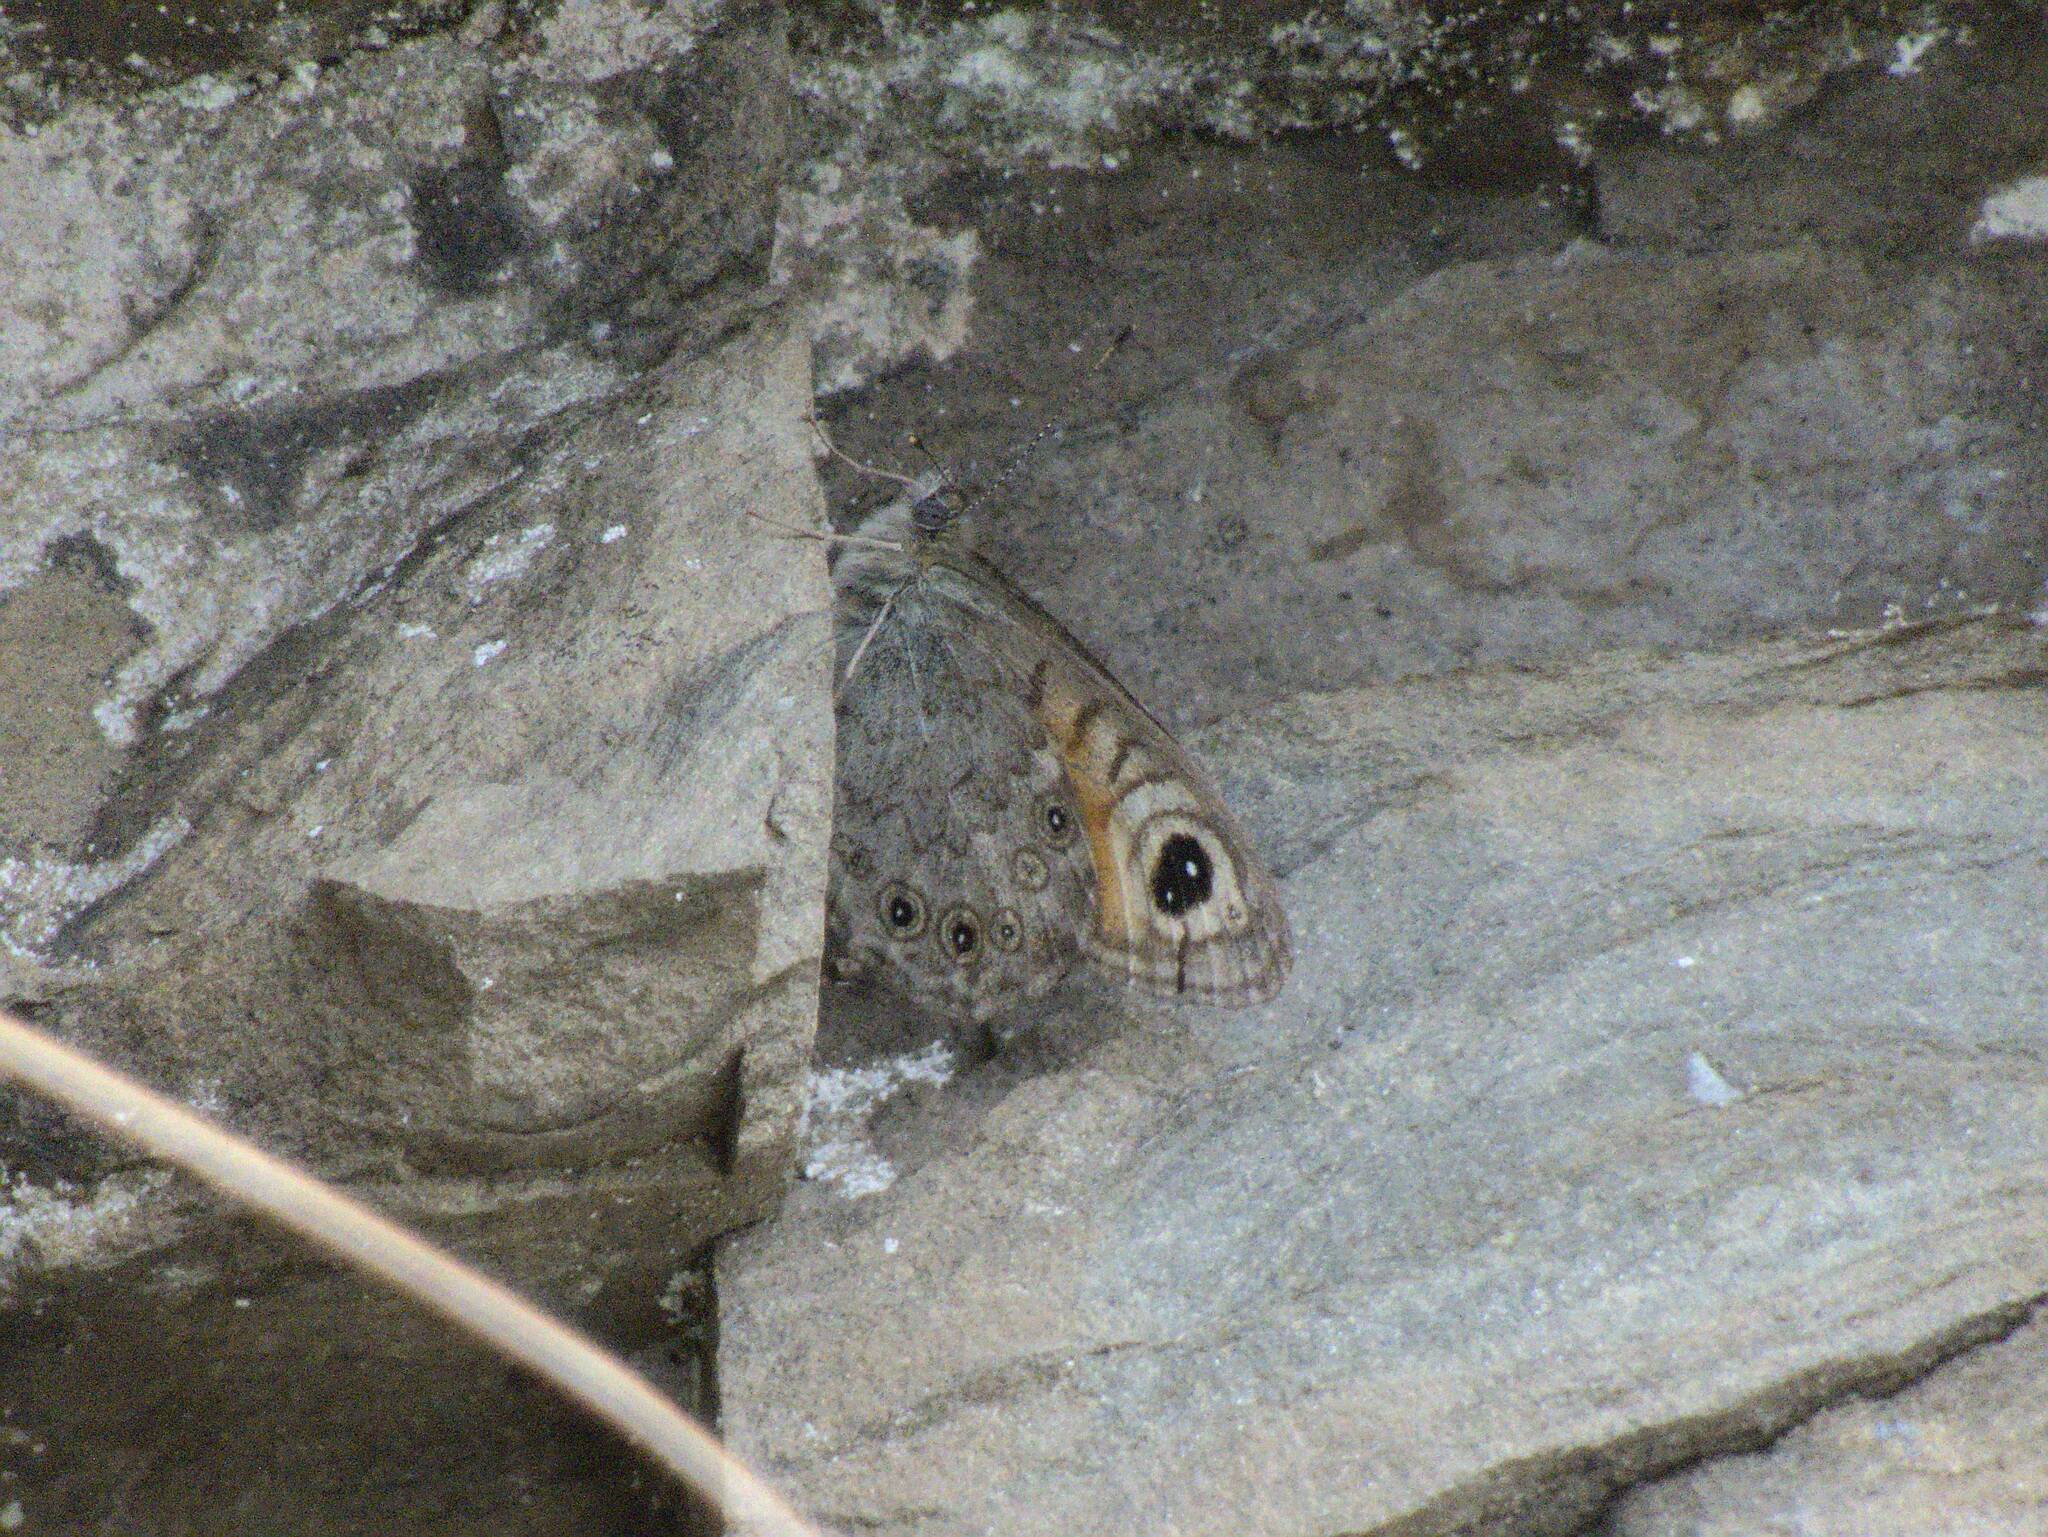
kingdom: Animalia
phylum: Arthropoda
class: Insecta
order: Lepidoptera
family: Nymphalidae
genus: Pararge
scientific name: Pararge Lasiommata maera
